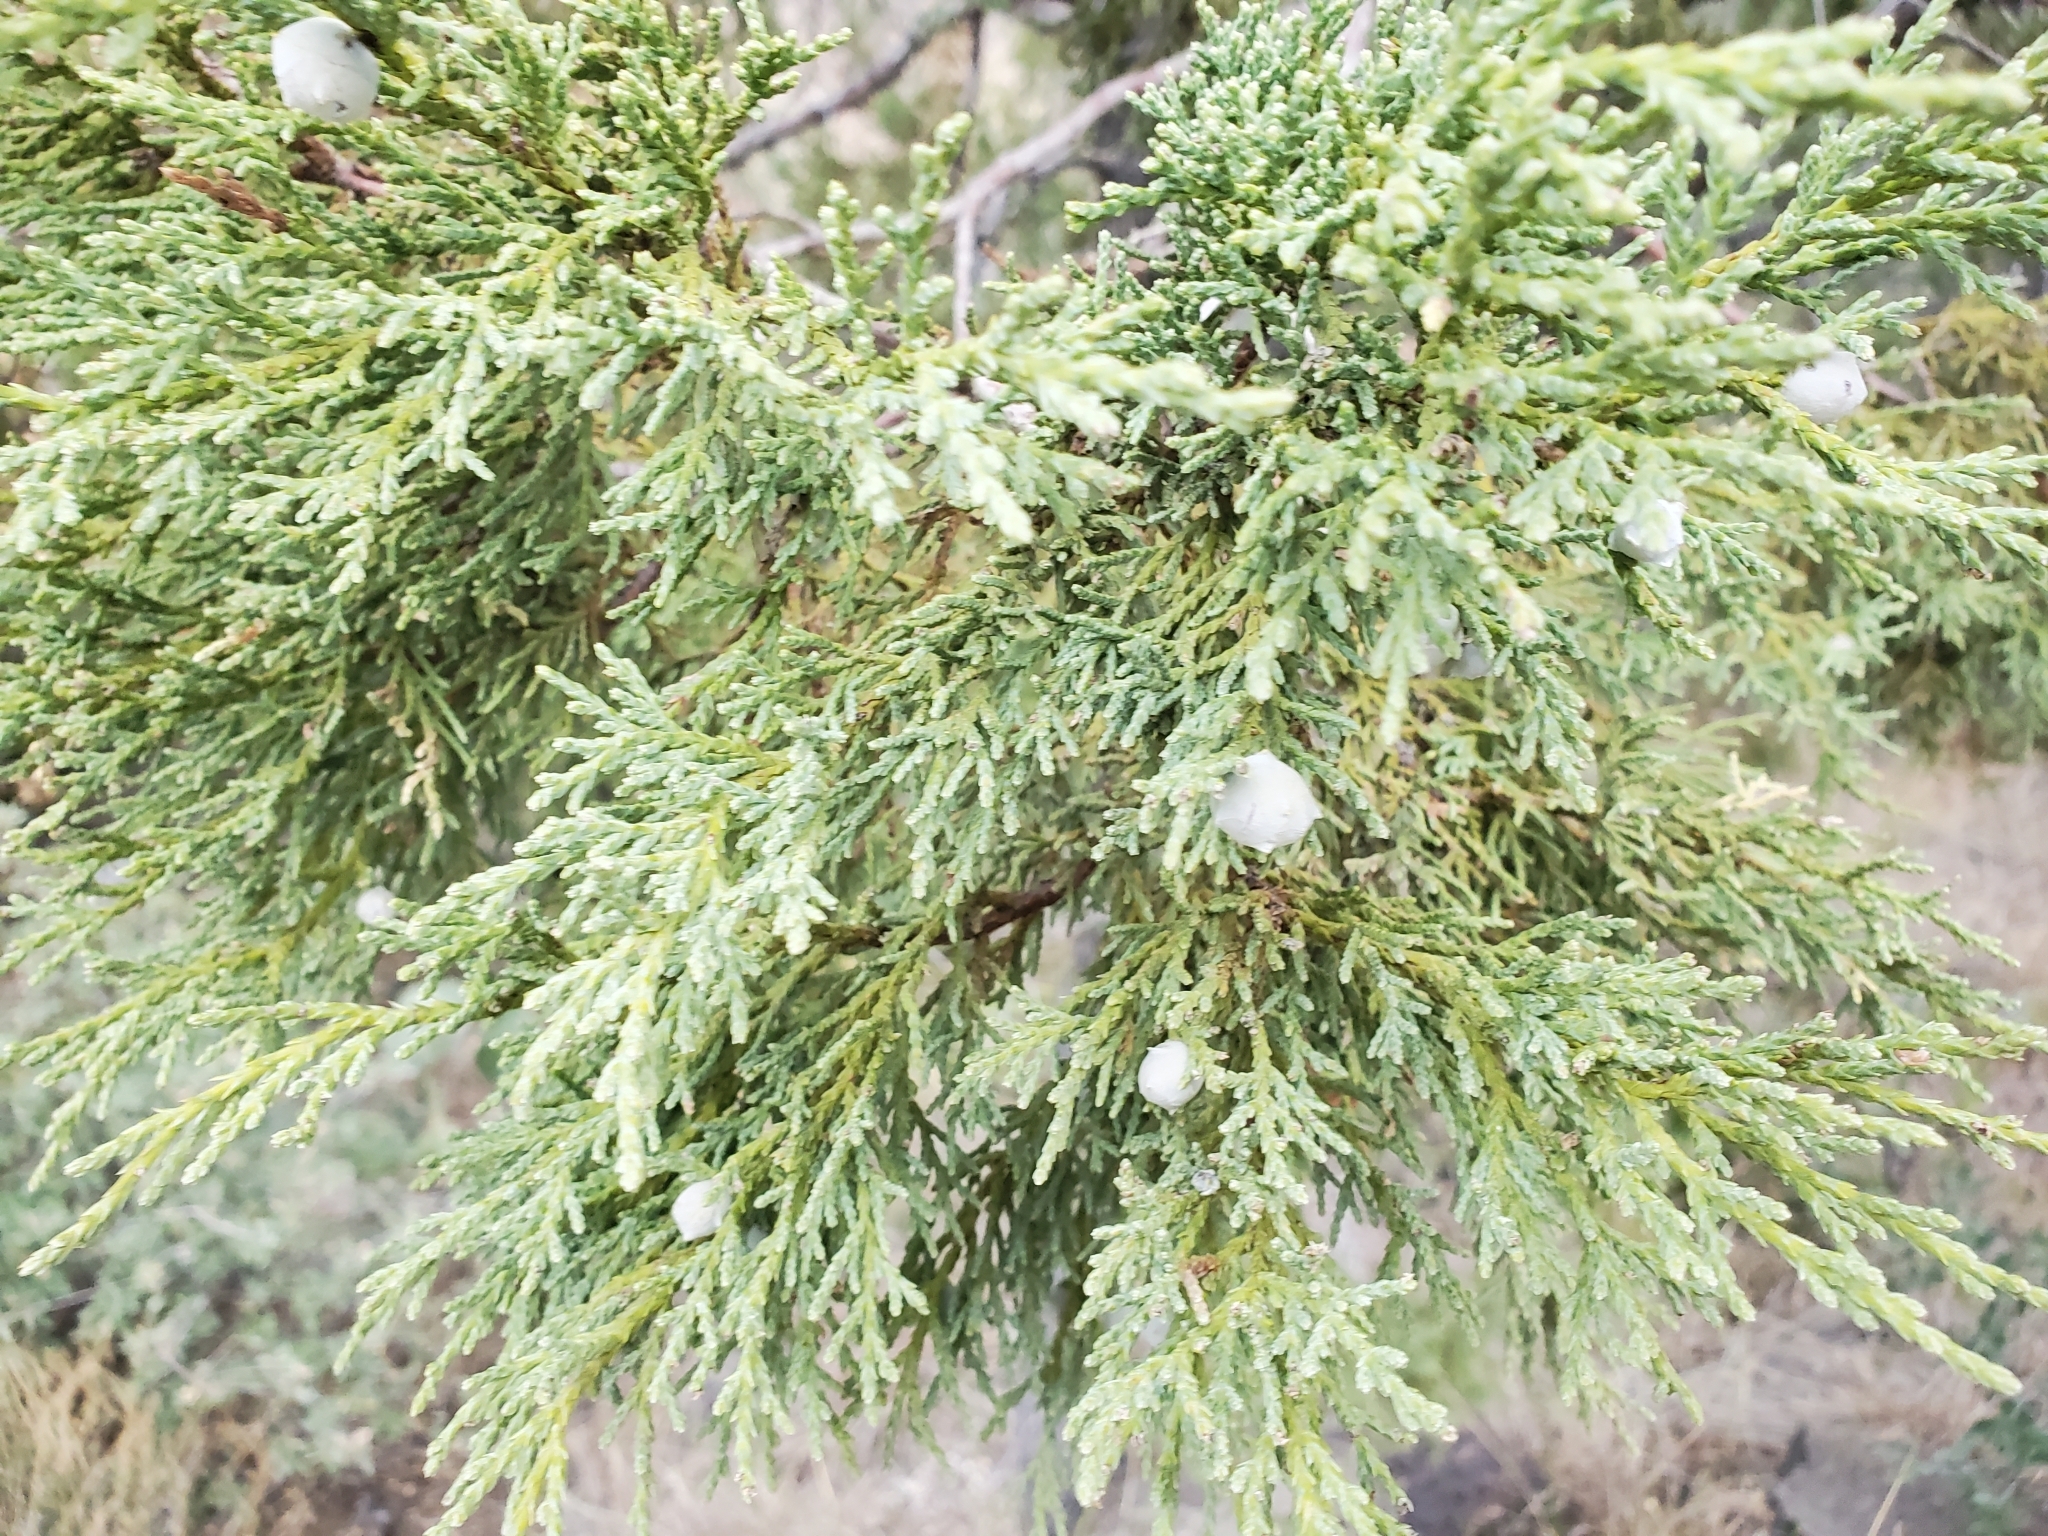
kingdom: Plantae
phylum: Tracheophyta
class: Pinopsida
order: Pinales
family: Cupressaceae
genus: Juniperus
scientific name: Juniperus deppeana
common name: Alligator juniper
